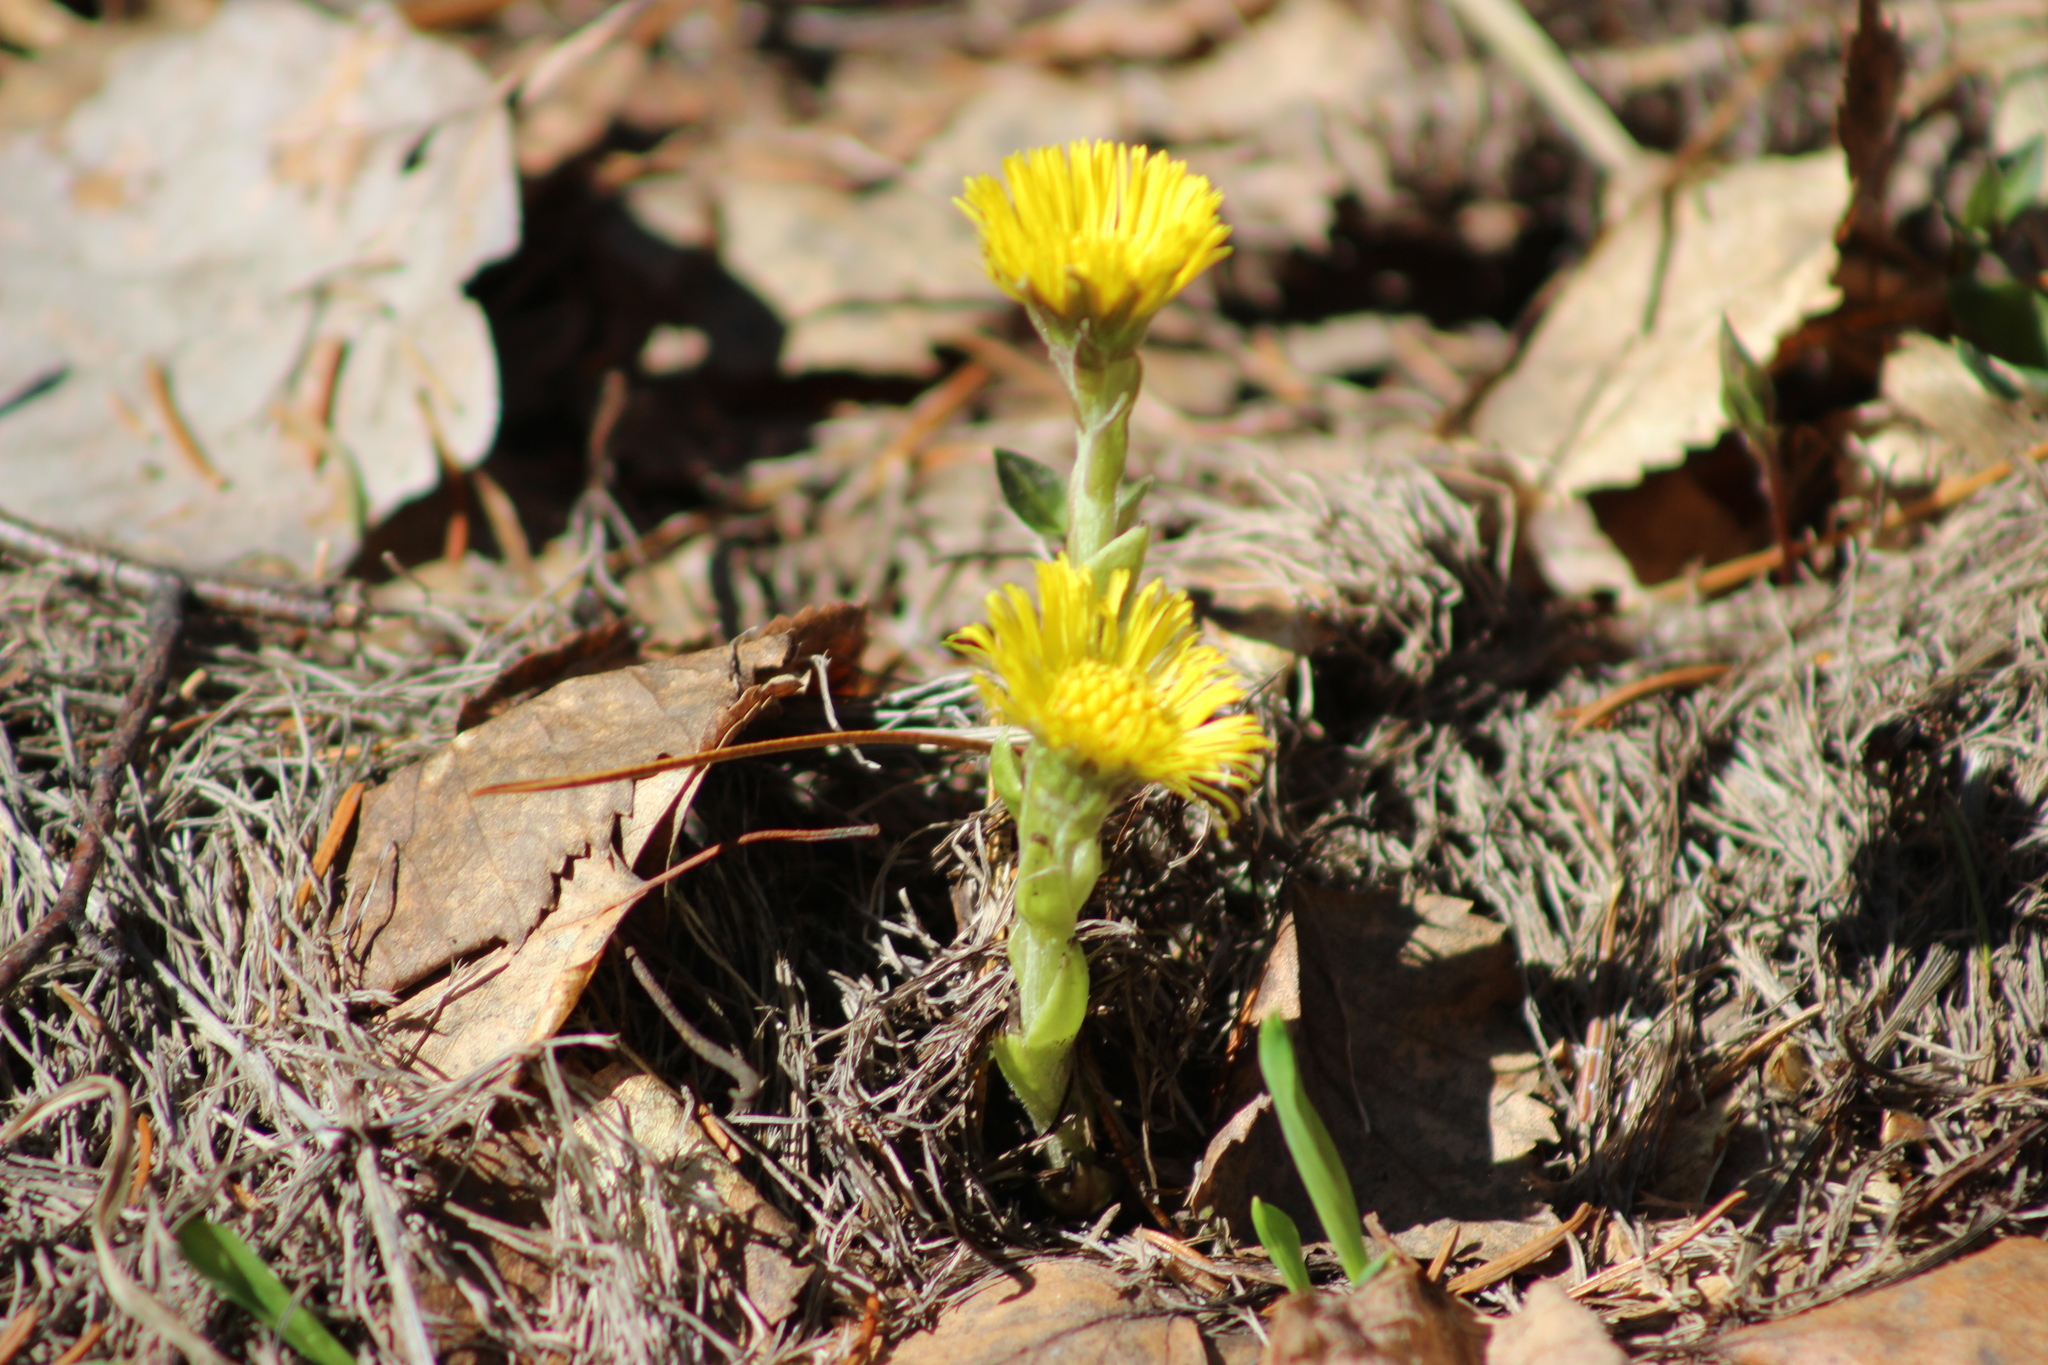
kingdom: Plantae
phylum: Tracheophyta
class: Magnoliopsida
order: Asterales
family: Asteraceae
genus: Tussilago
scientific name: Tussilago farfara
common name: Coltsfoot
